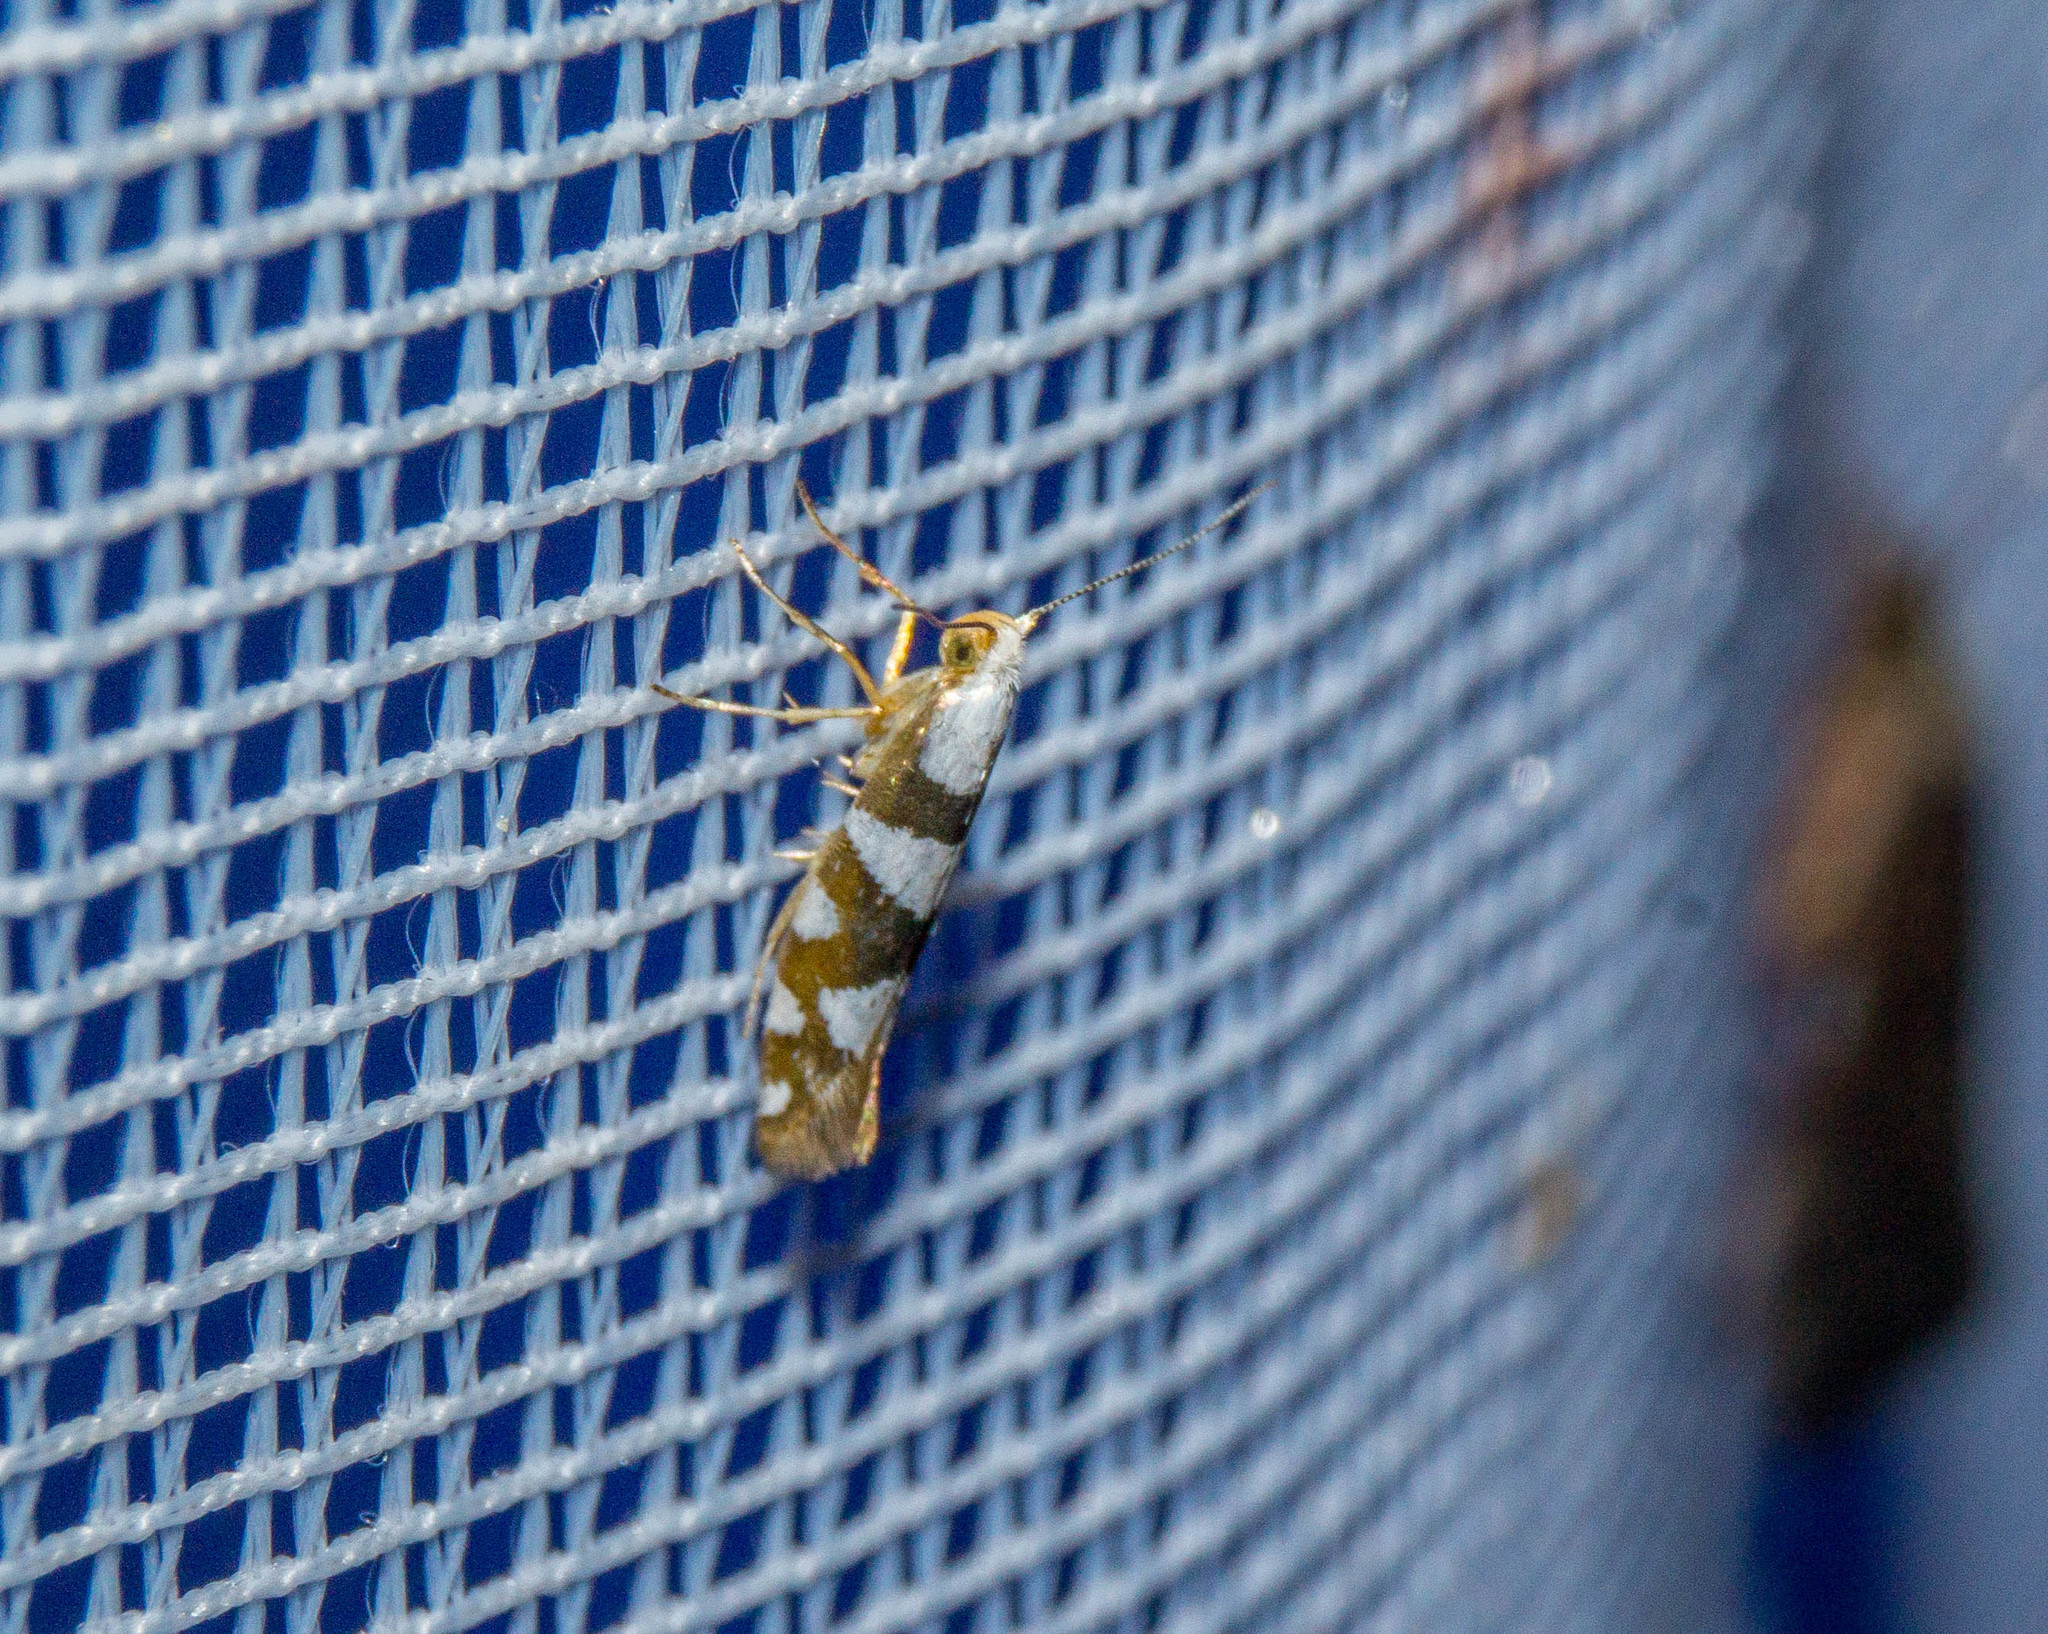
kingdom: Animalia
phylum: Arthropoda
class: Insecta
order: Lepidoptera
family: Argyresthiidae
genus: Argyresthia
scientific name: Argyresthia brockeella
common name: Gold-ribbon argent
